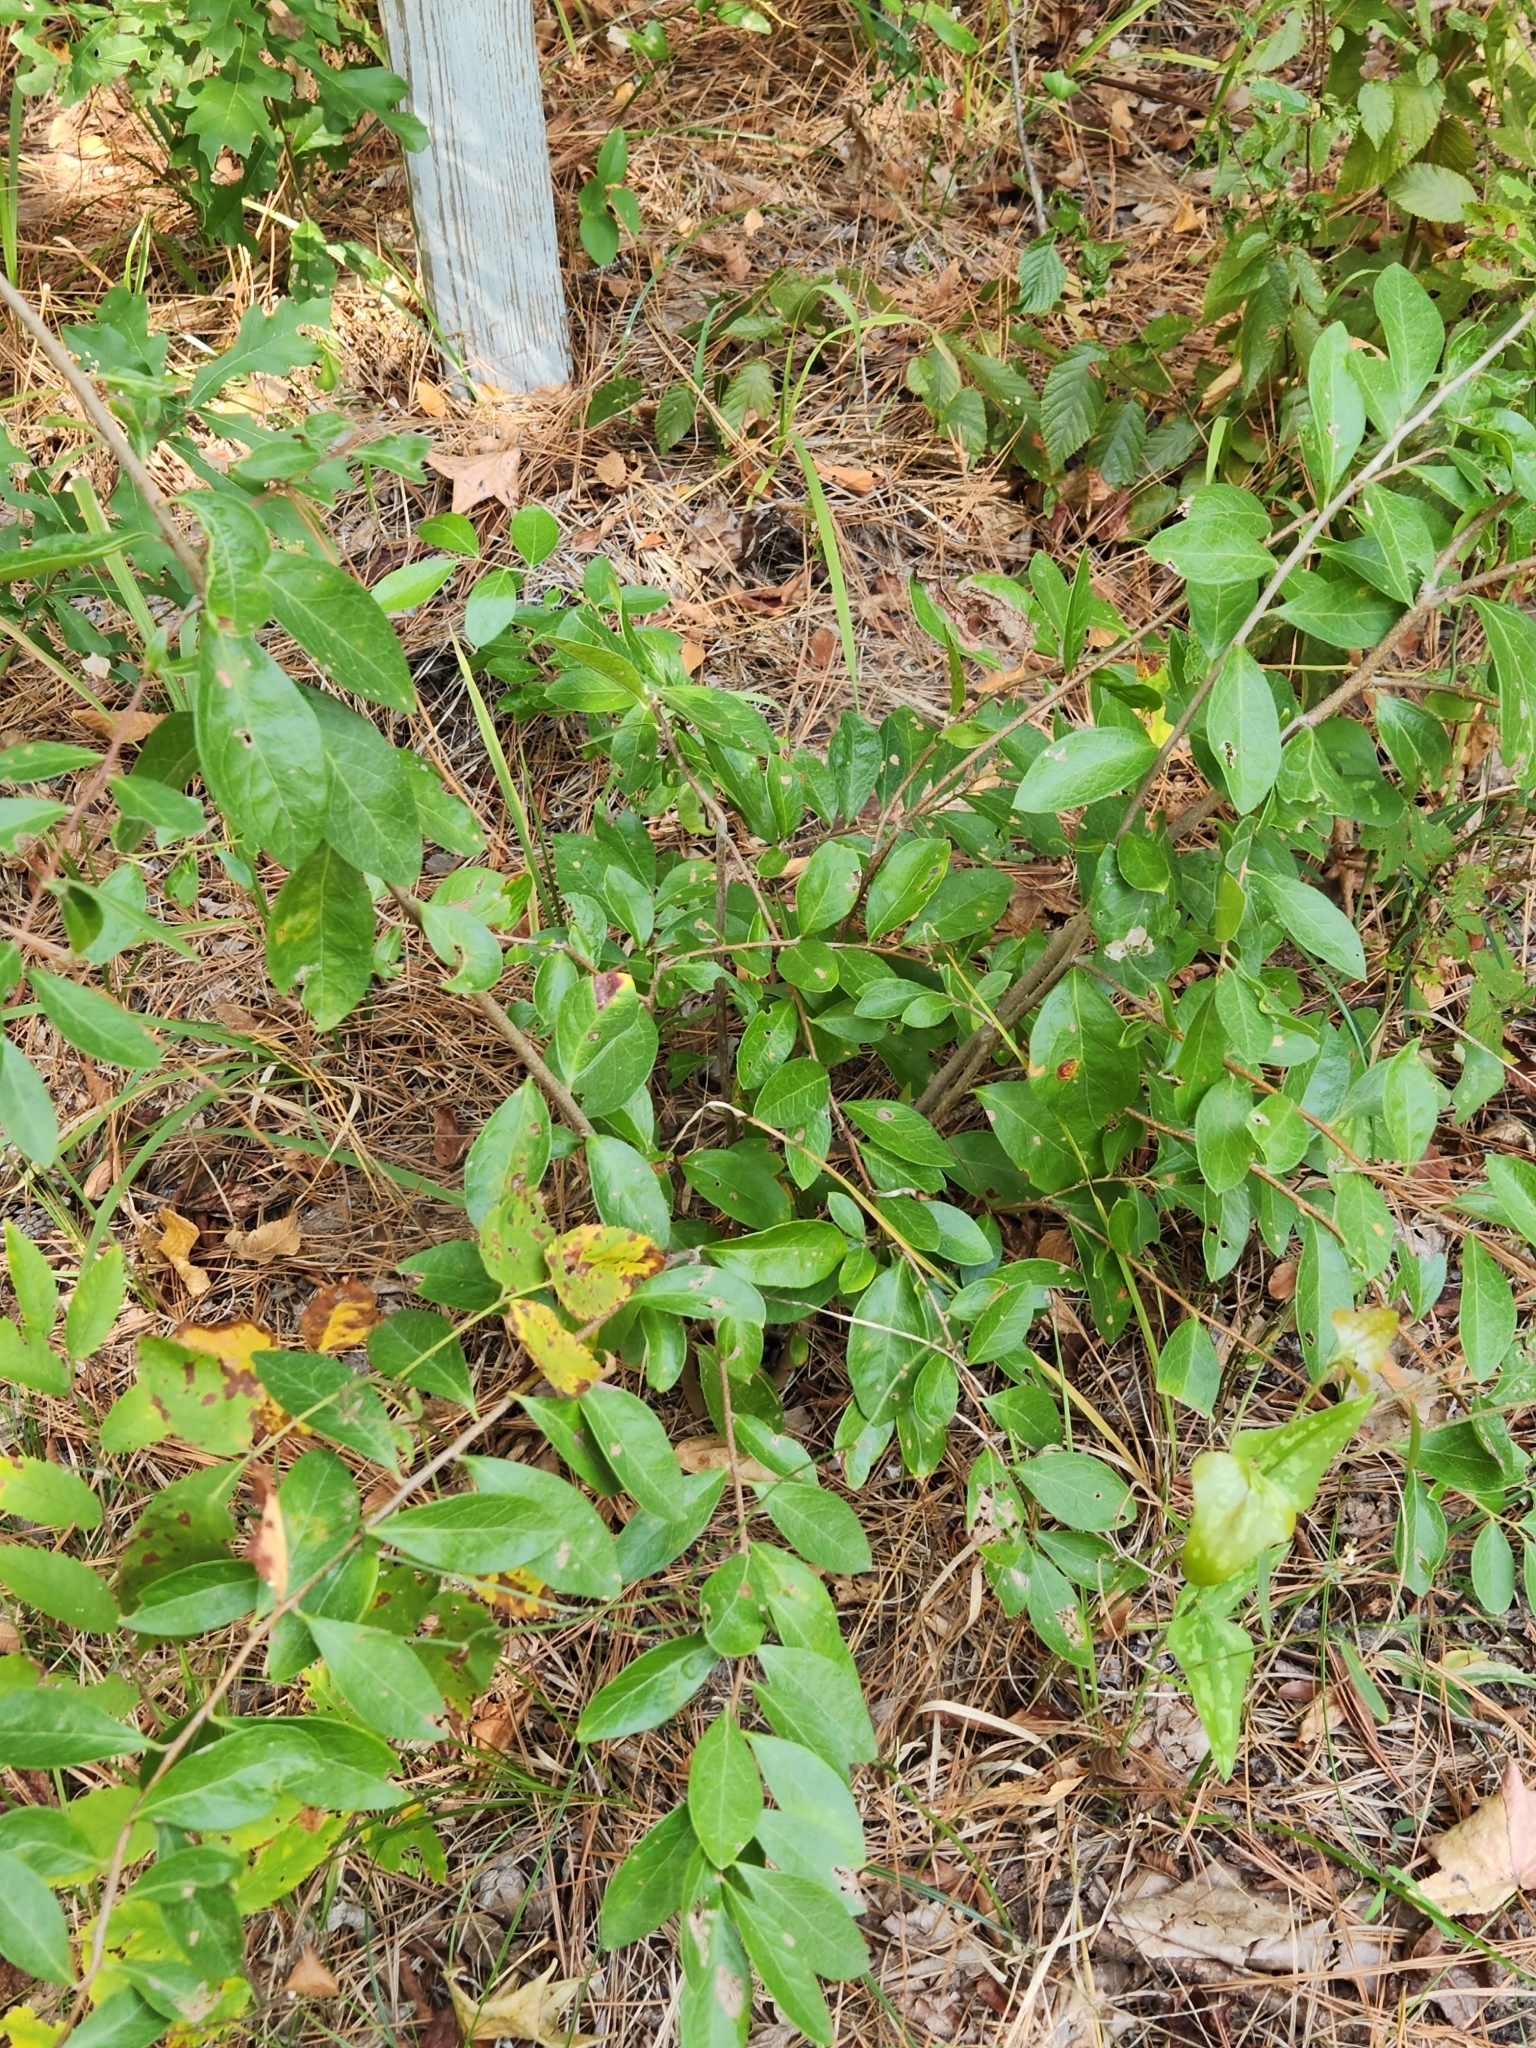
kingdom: Plantae
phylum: Tracheophyta
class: Magnoliopsida
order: Ericales
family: Ericaceae
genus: Vaccinium
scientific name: Vaccinium arboreum
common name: Farkleberry
